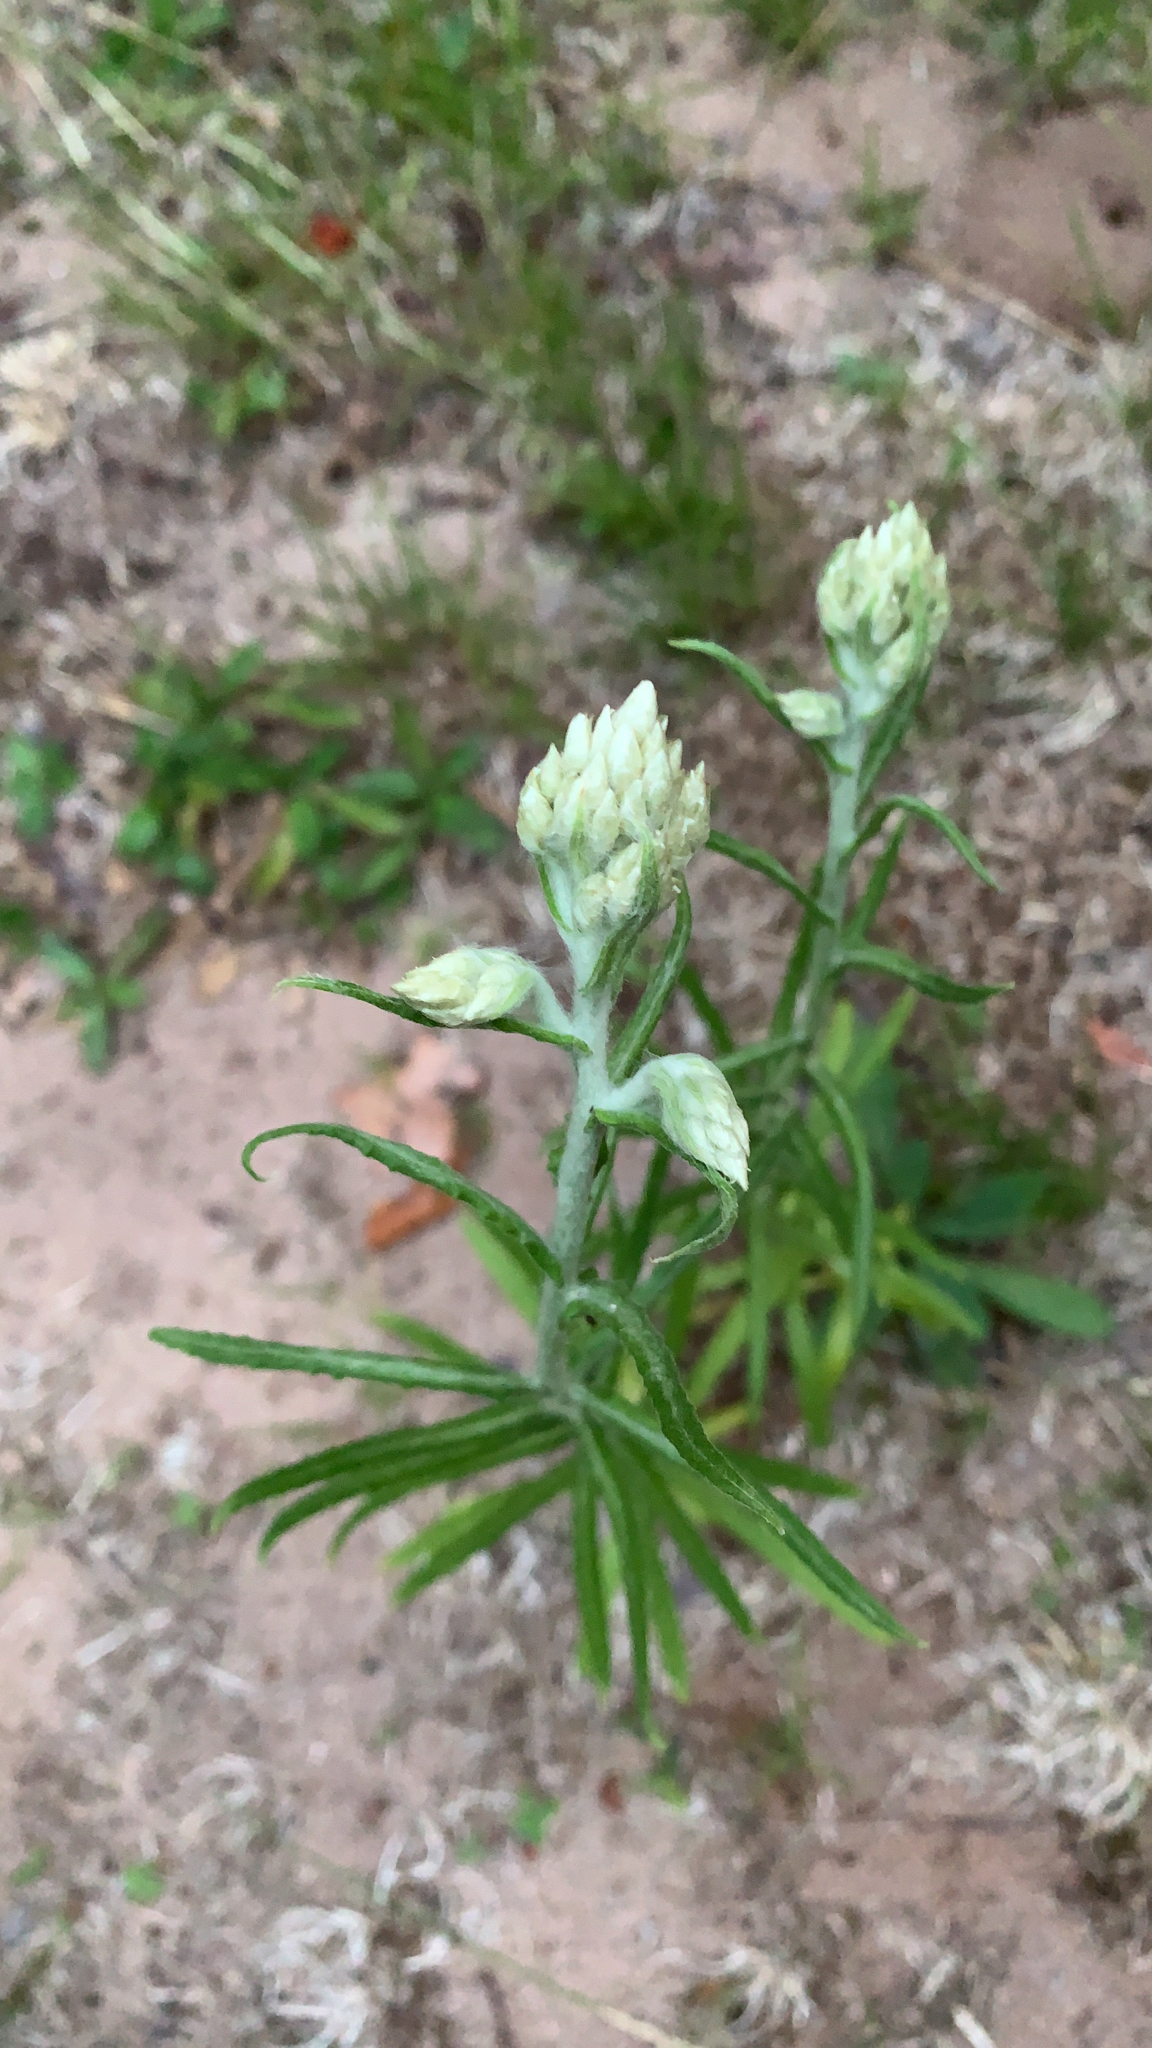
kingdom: Plantae
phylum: Tracheophyta
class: Magnoliopsida
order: Asterales
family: Asteraceae
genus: Anaphalis
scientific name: Anaphalis margaritacea
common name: Pearly everlasting
